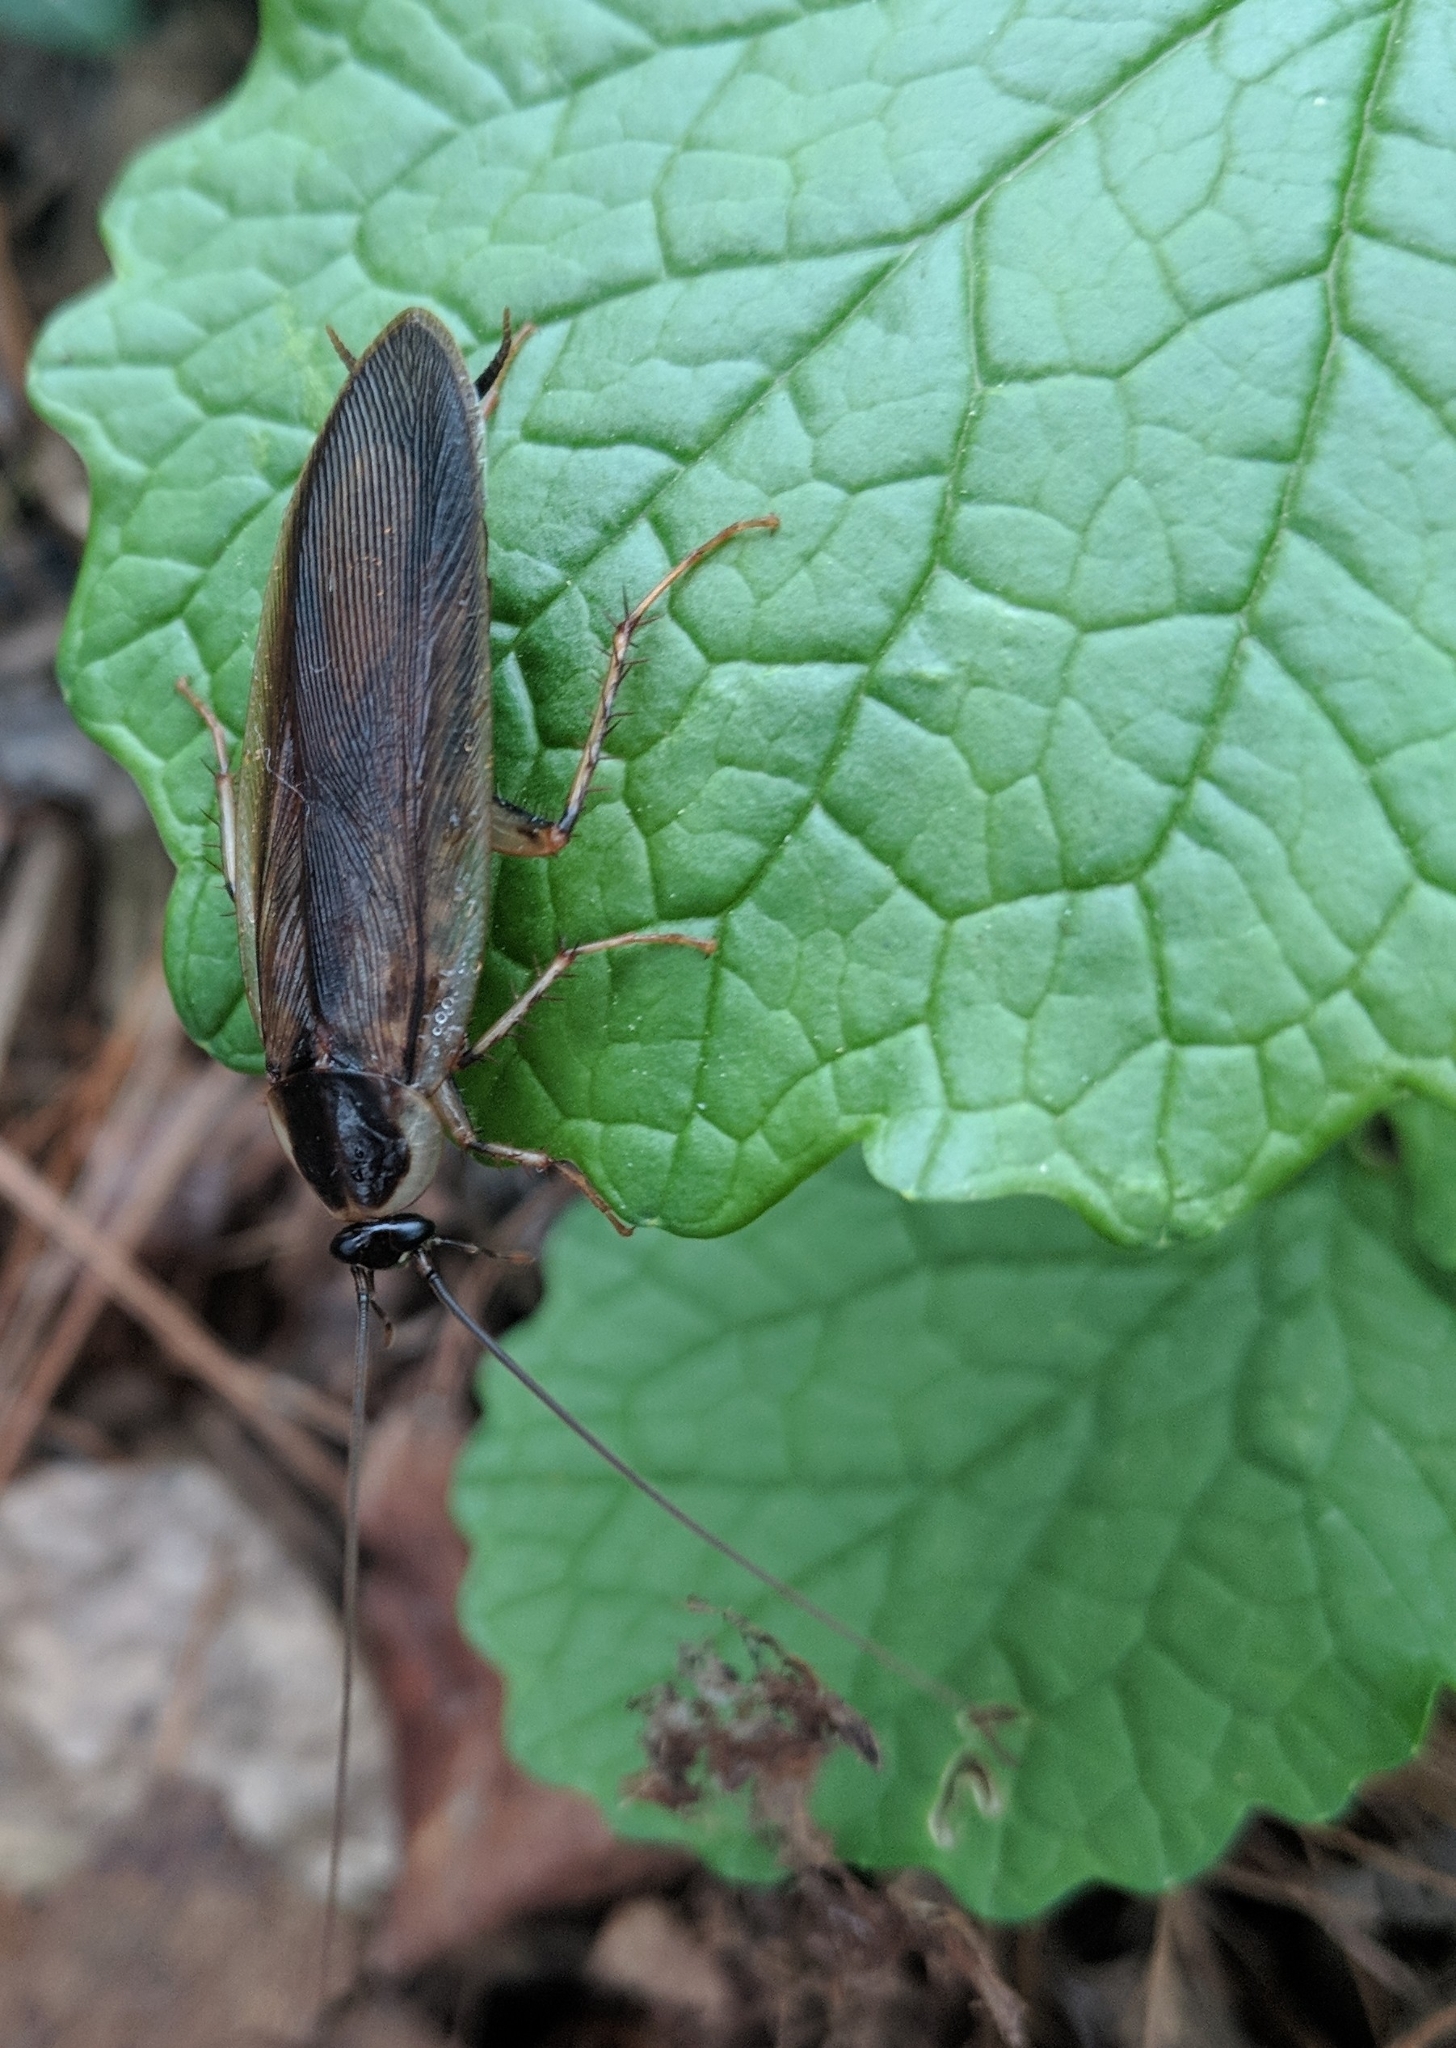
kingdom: Animalia
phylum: Arthropoda
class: Insecta
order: Blattodea
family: Ectobiidae
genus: Parcoblatta
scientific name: Parcoblatta pennsylvanica
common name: Pennsylvanian wood cockroach
